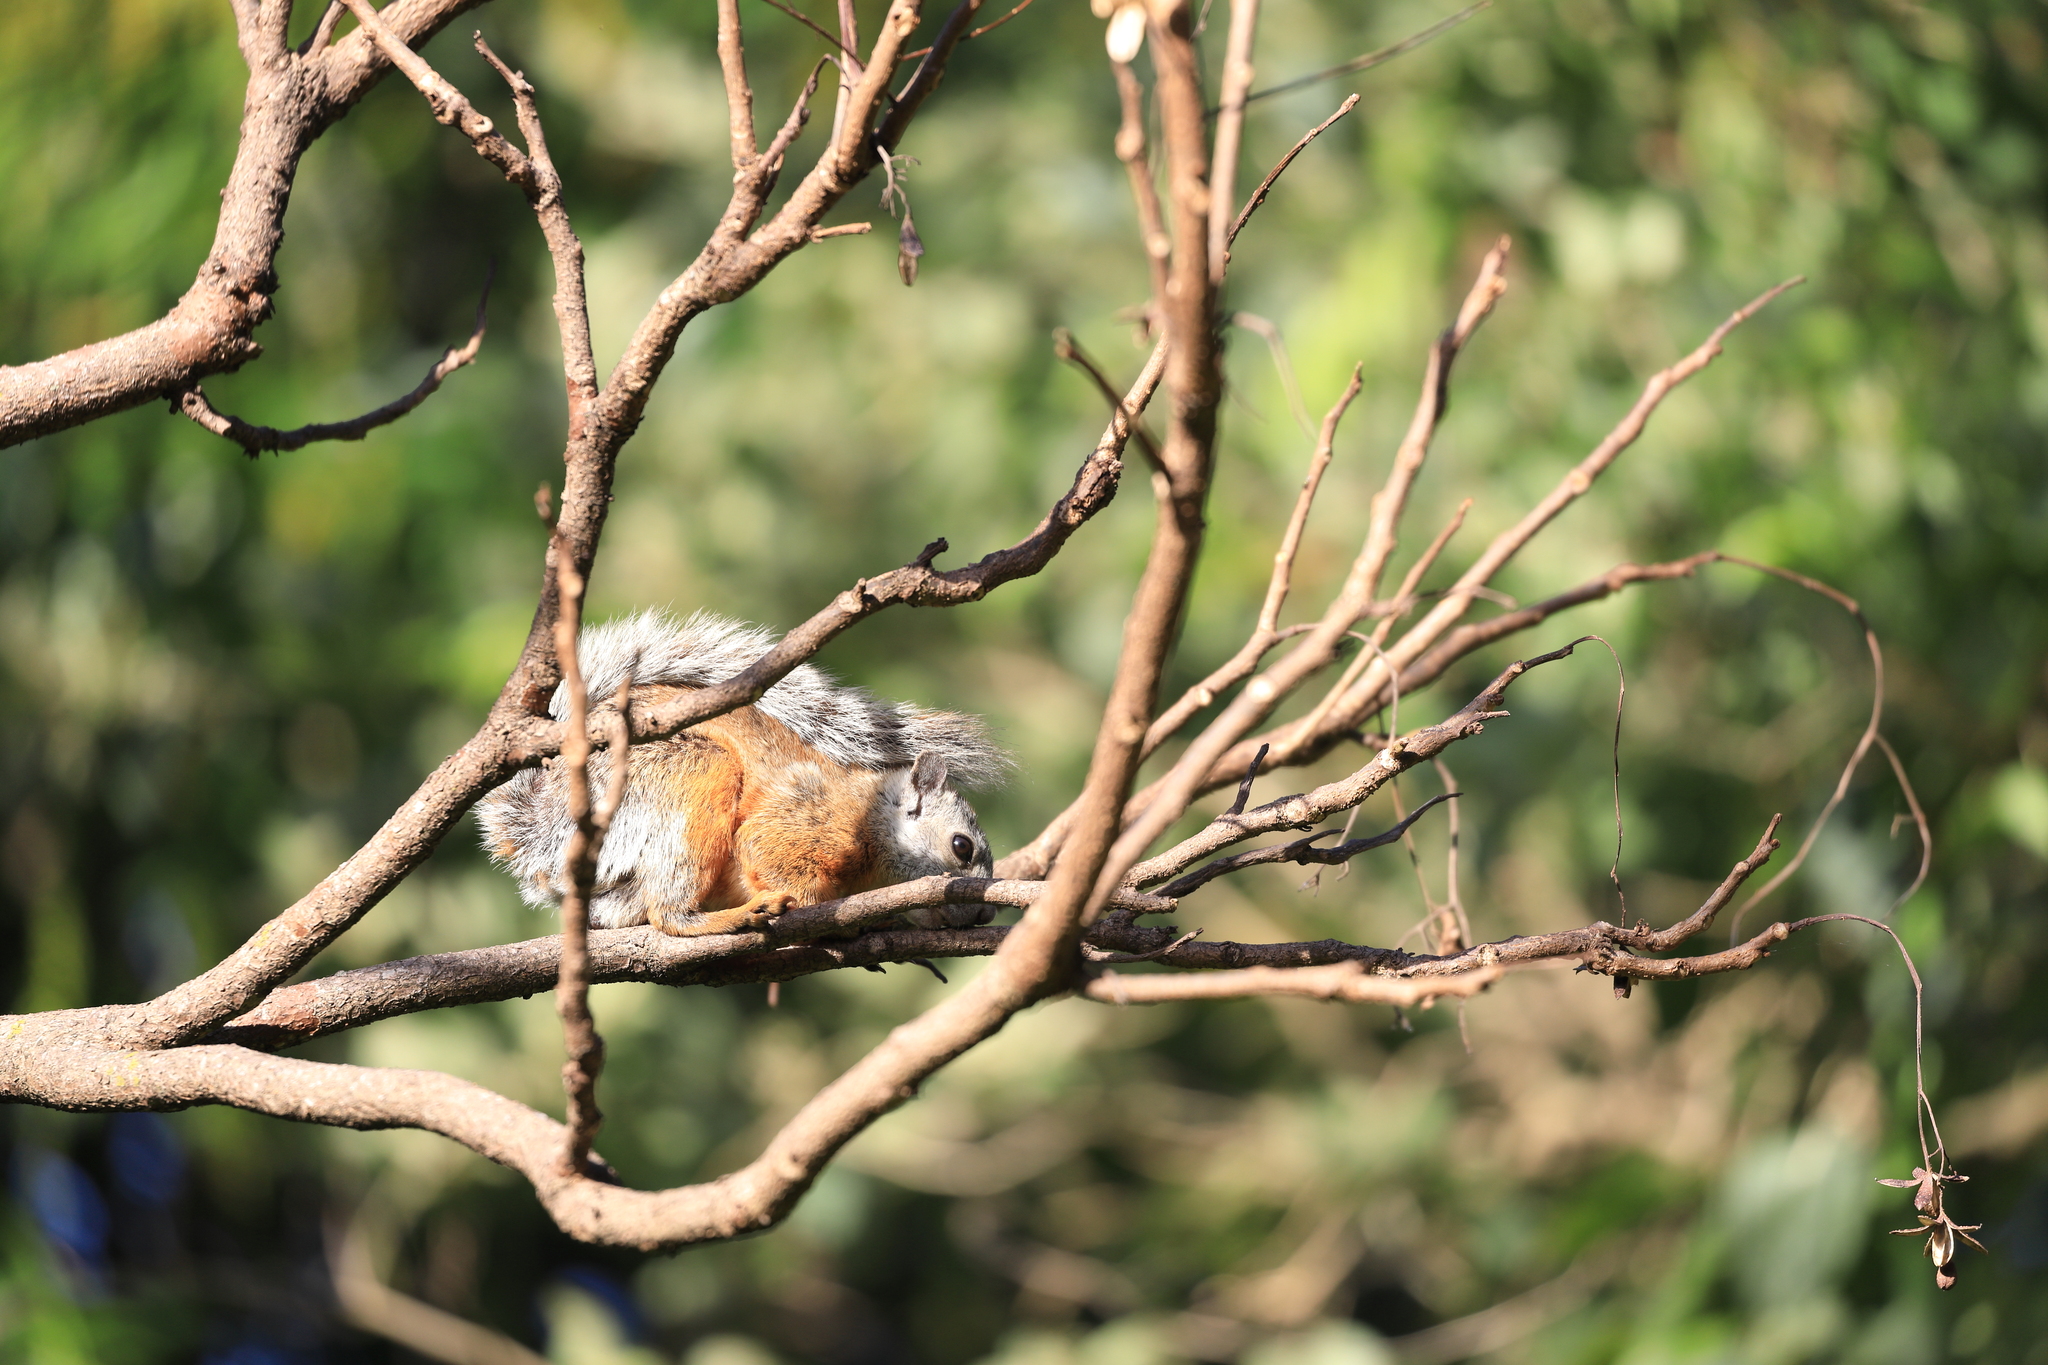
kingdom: Animalia
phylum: Chordata
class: Mammalia
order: Rodentia
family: Sciuridae
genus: Sciurus
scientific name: Sciurus variegatoides
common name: Variegated squirrel
